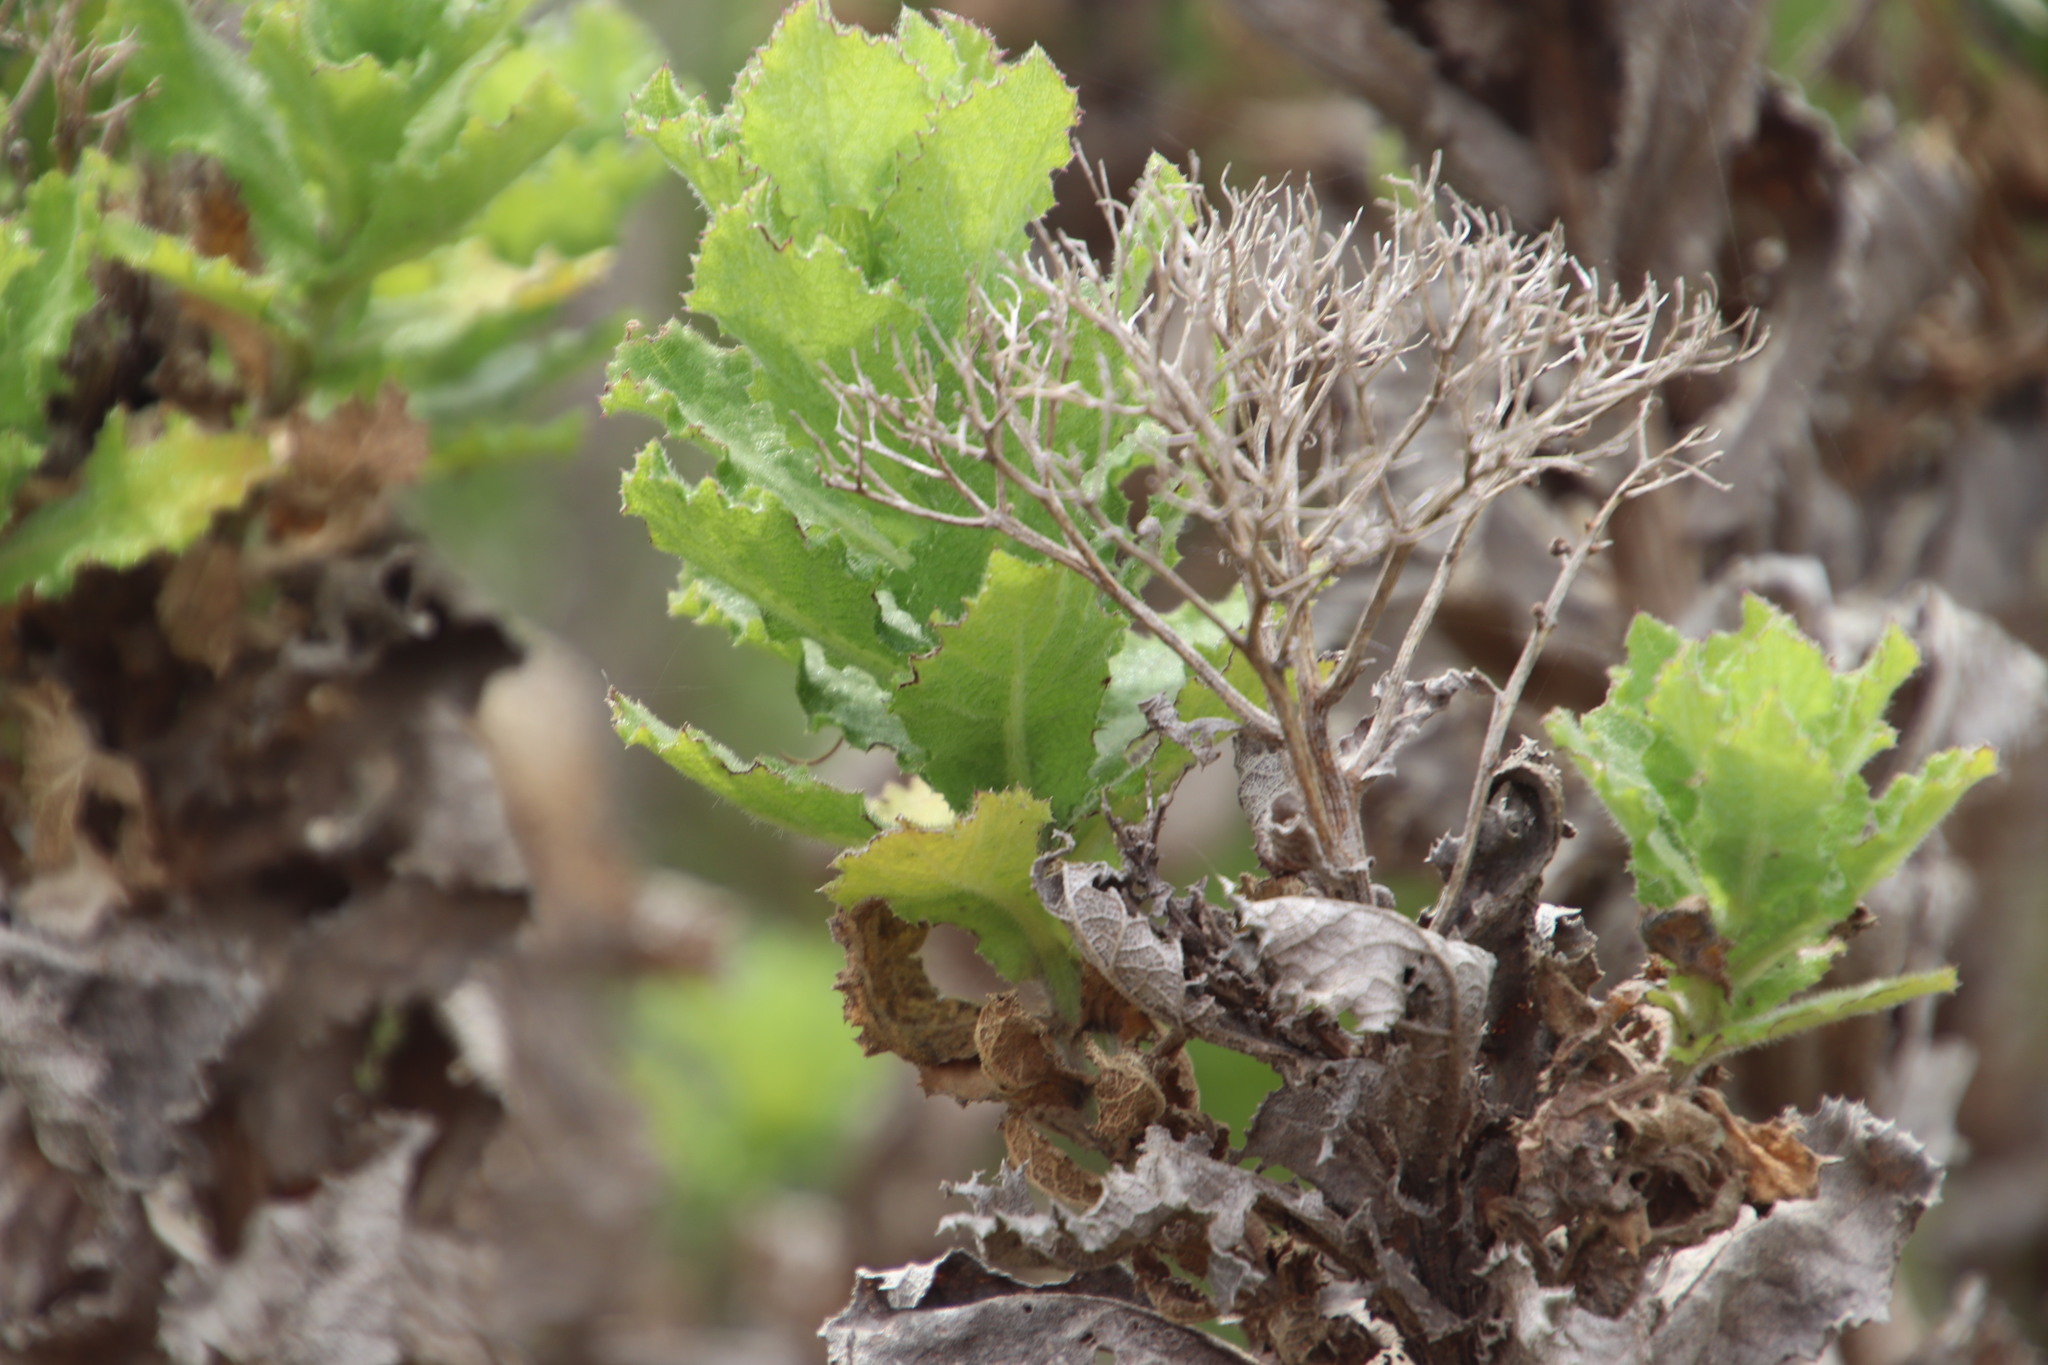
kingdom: Plantae
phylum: Tracheophyta
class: Magnoliopsida
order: Asterales
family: Asteraceae
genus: Senecio
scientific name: Senecio rigidus
